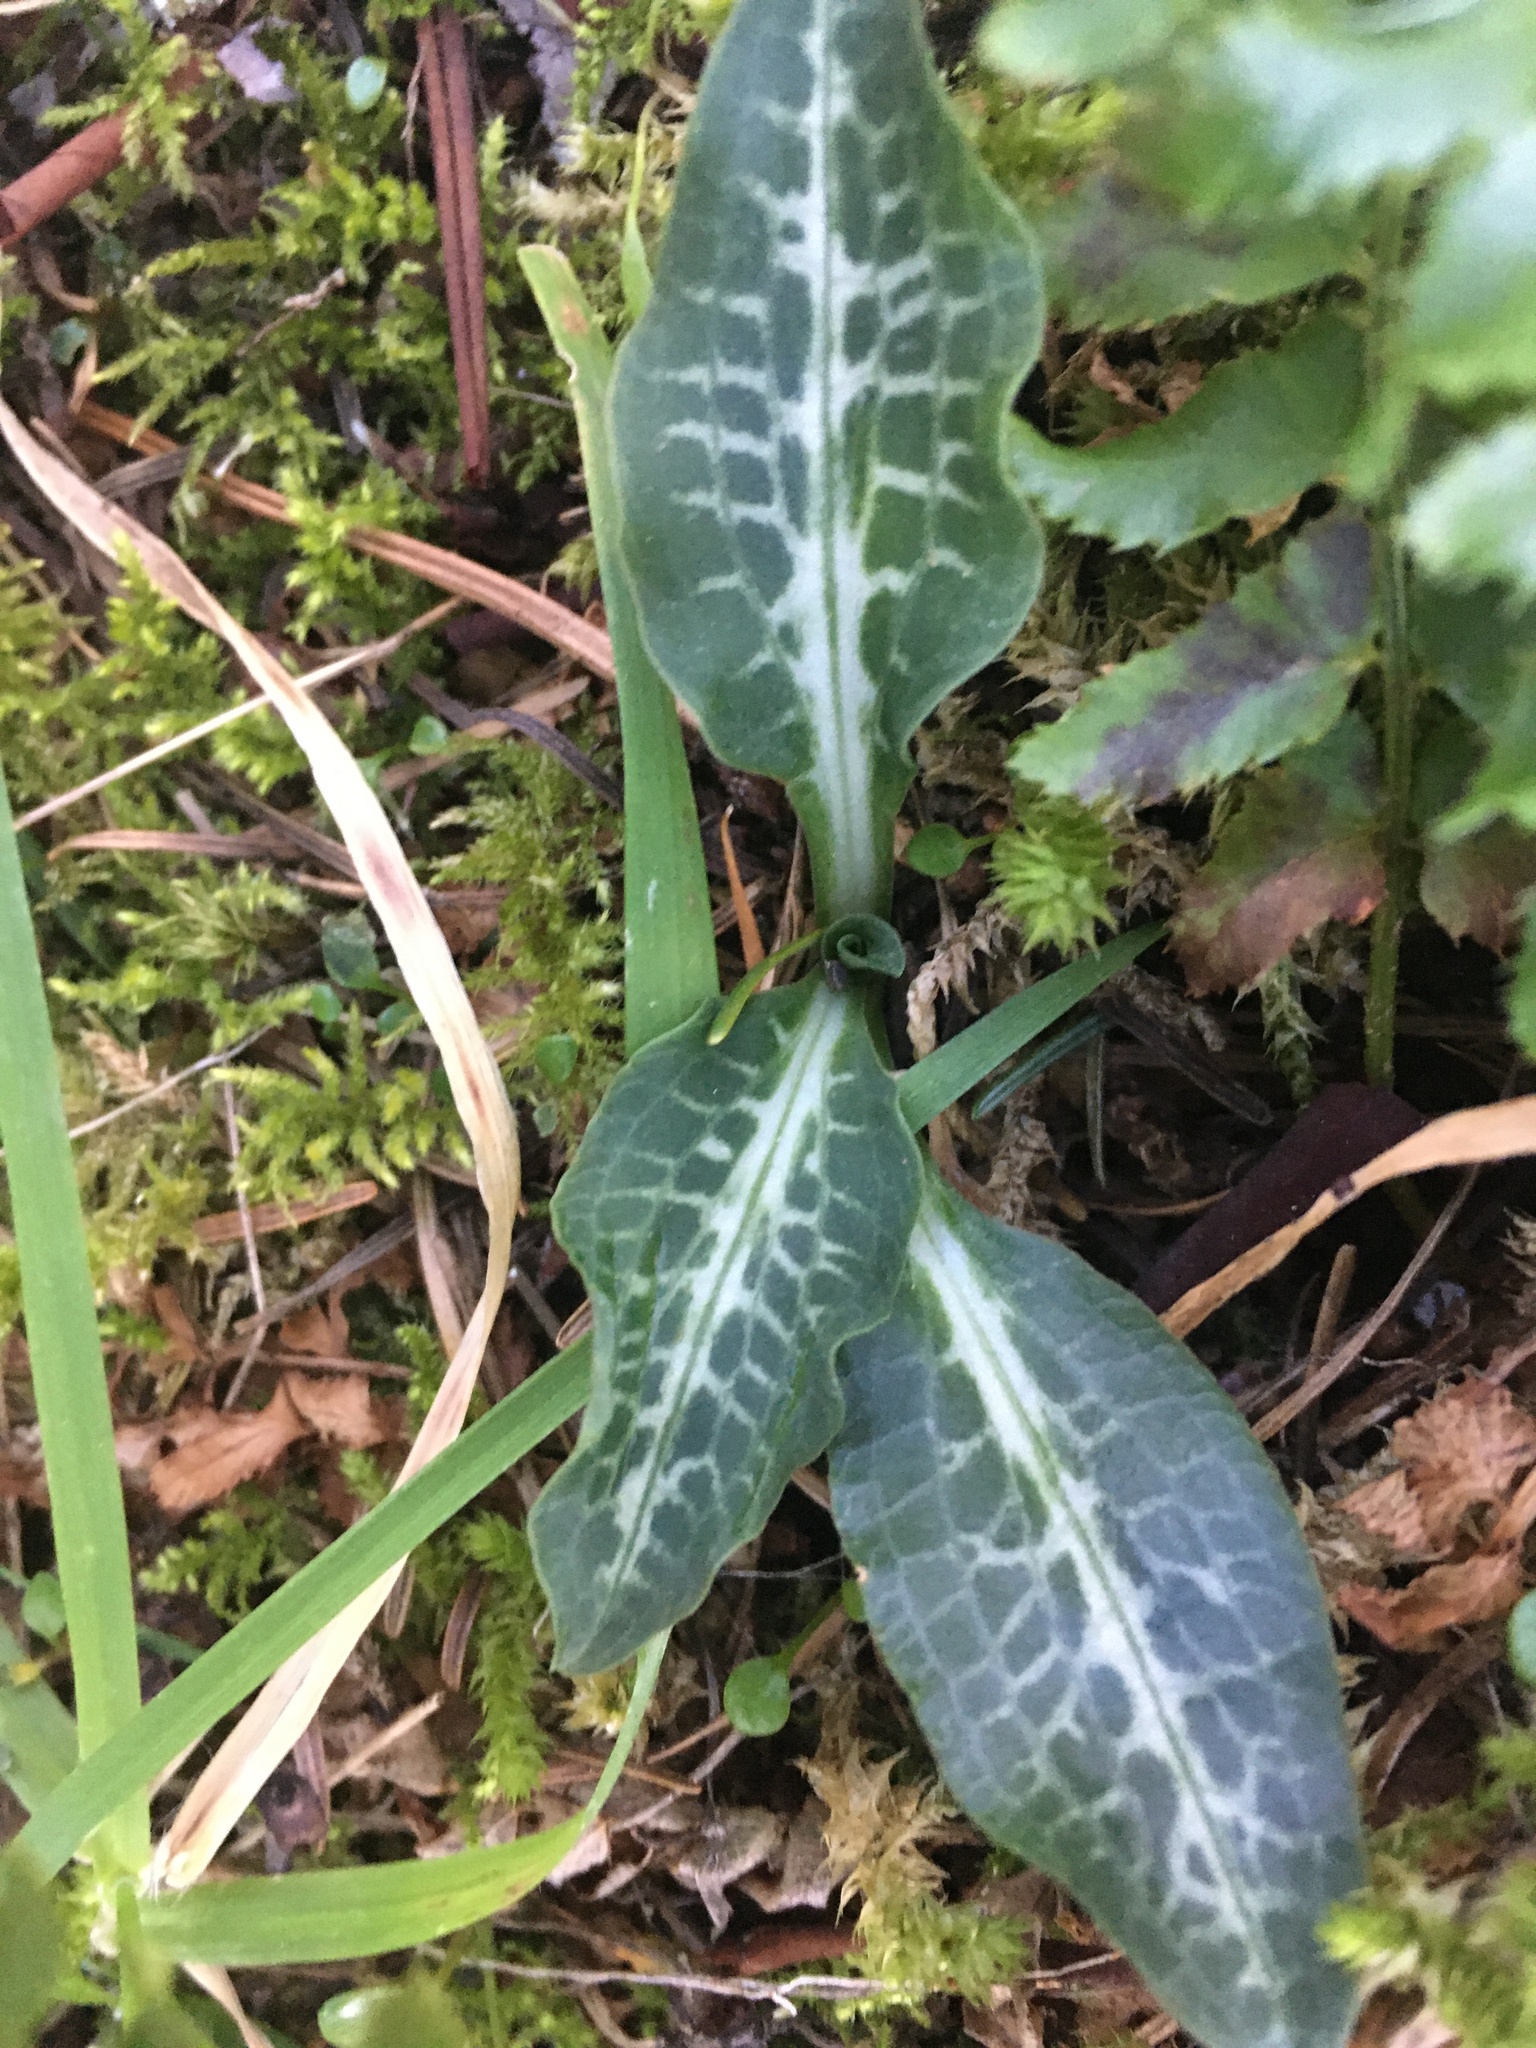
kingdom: Plantae
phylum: Tracheophyta
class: Liliopsida
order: Asparagales
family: Orchidaceae
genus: Goodyera
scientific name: Goodyera oblongifolia
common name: Giant rattlesnake-plantain
